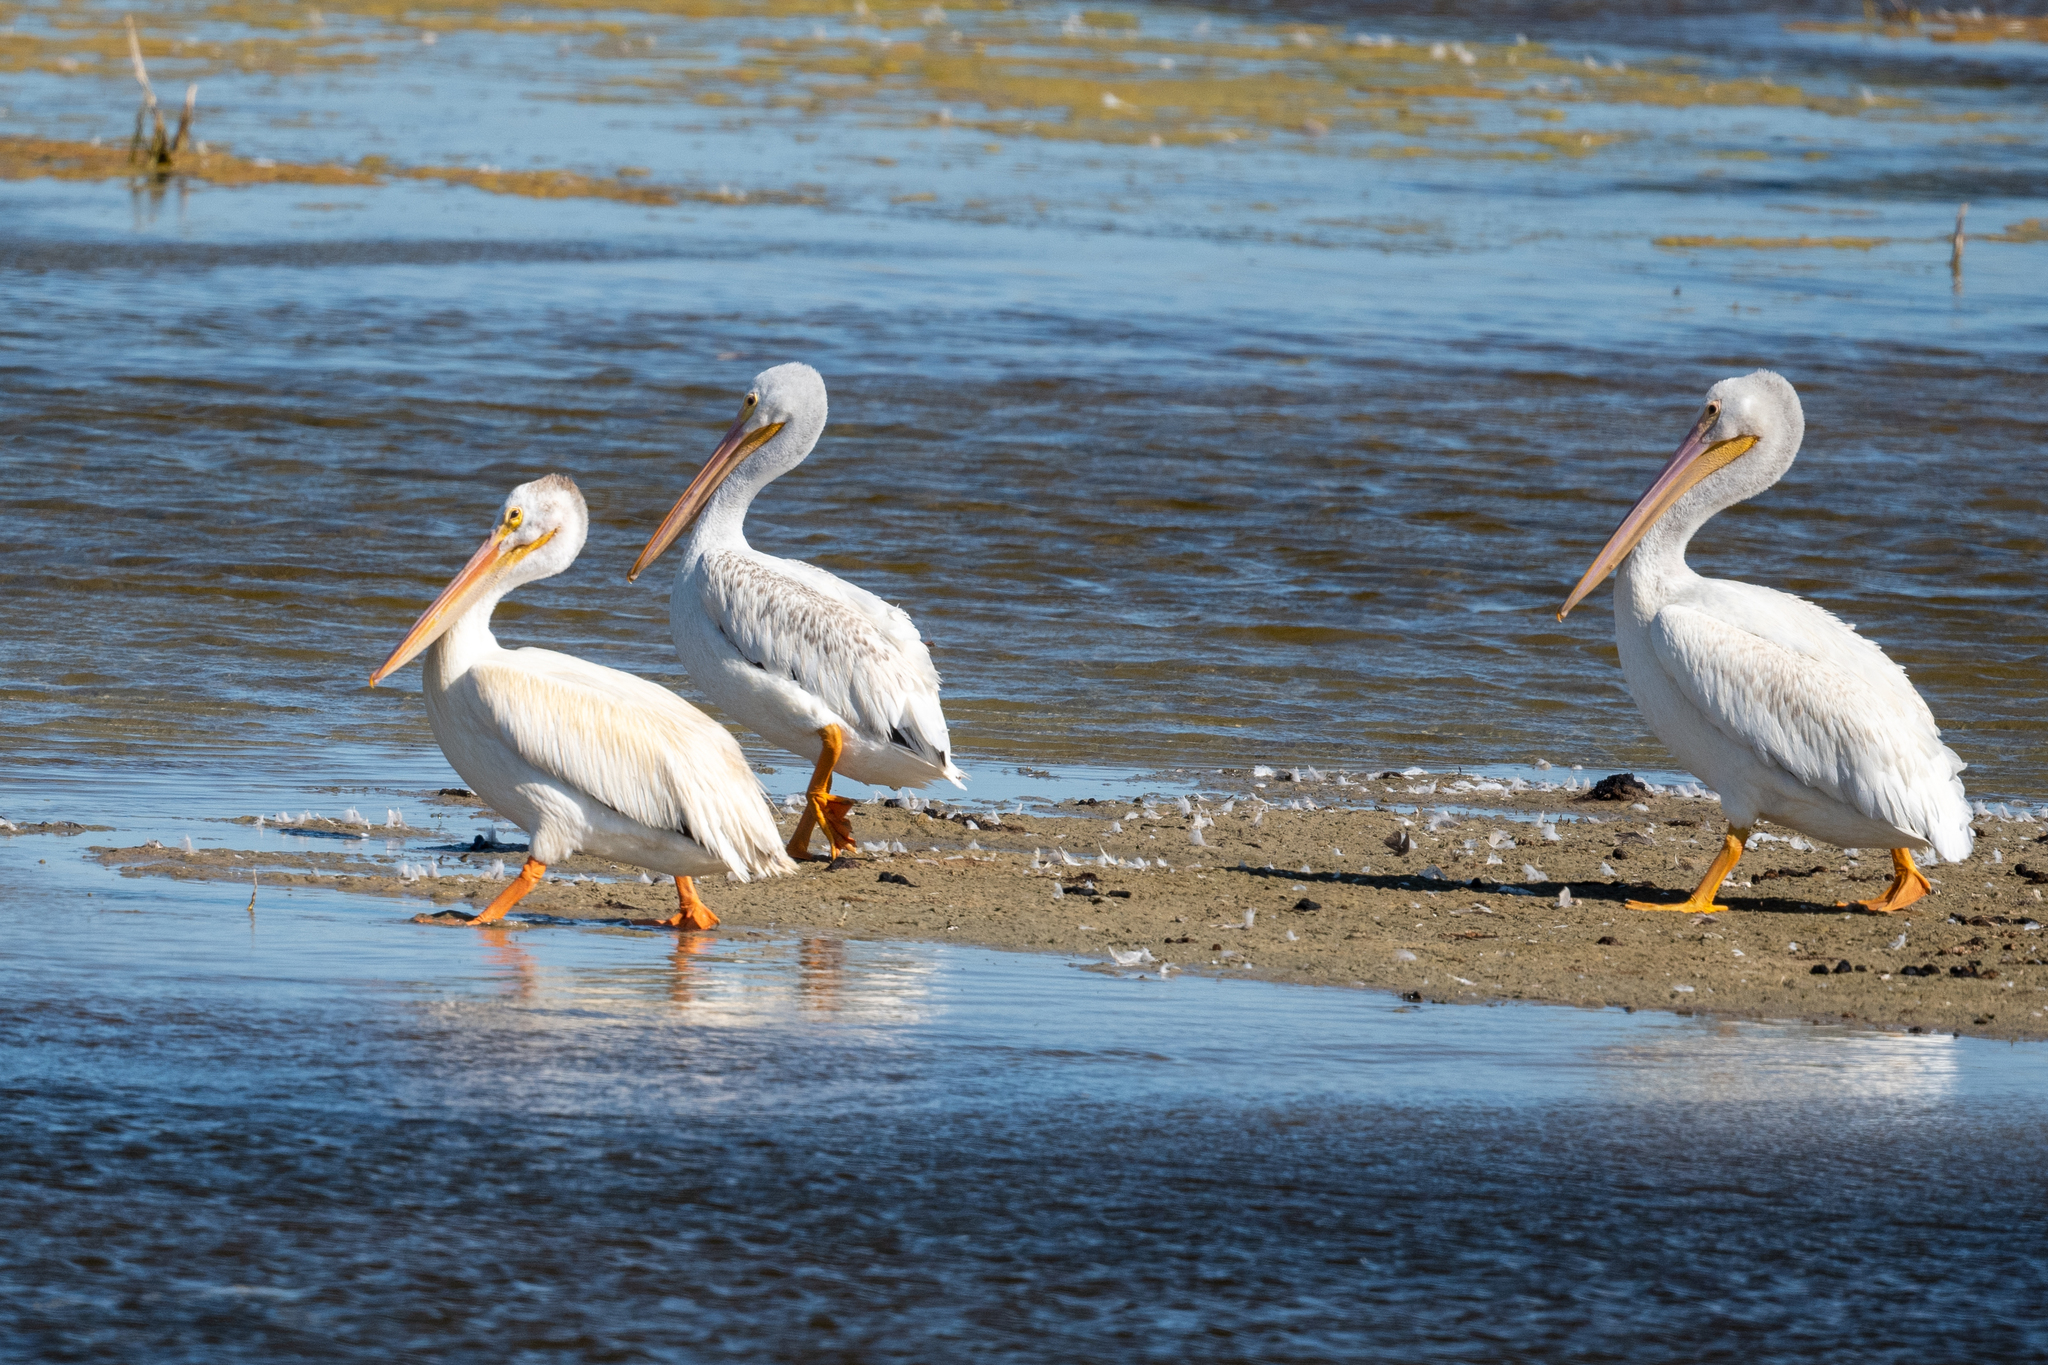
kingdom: Animalia
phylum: Chordata
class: Aves
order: Pelecaniformes
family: Pelecanidae
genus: Pelecanus
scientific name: Pelecanus erythrorhynchos
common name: American white pelican
